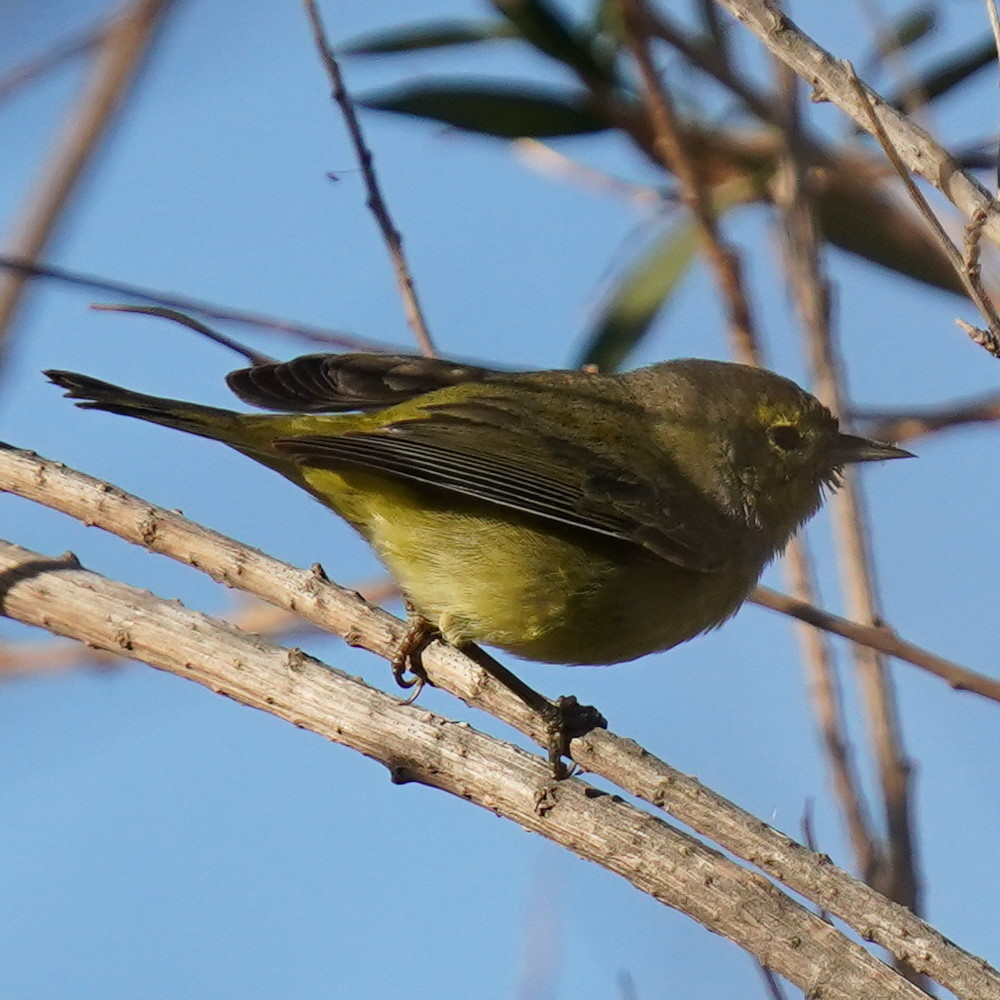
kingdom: Animalia
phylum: Chordata
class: Aves
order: Passeriformes
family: Parulidae
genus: Leiothlypis
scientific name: Leiothlypis celata
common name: Orange-crowned warbler
